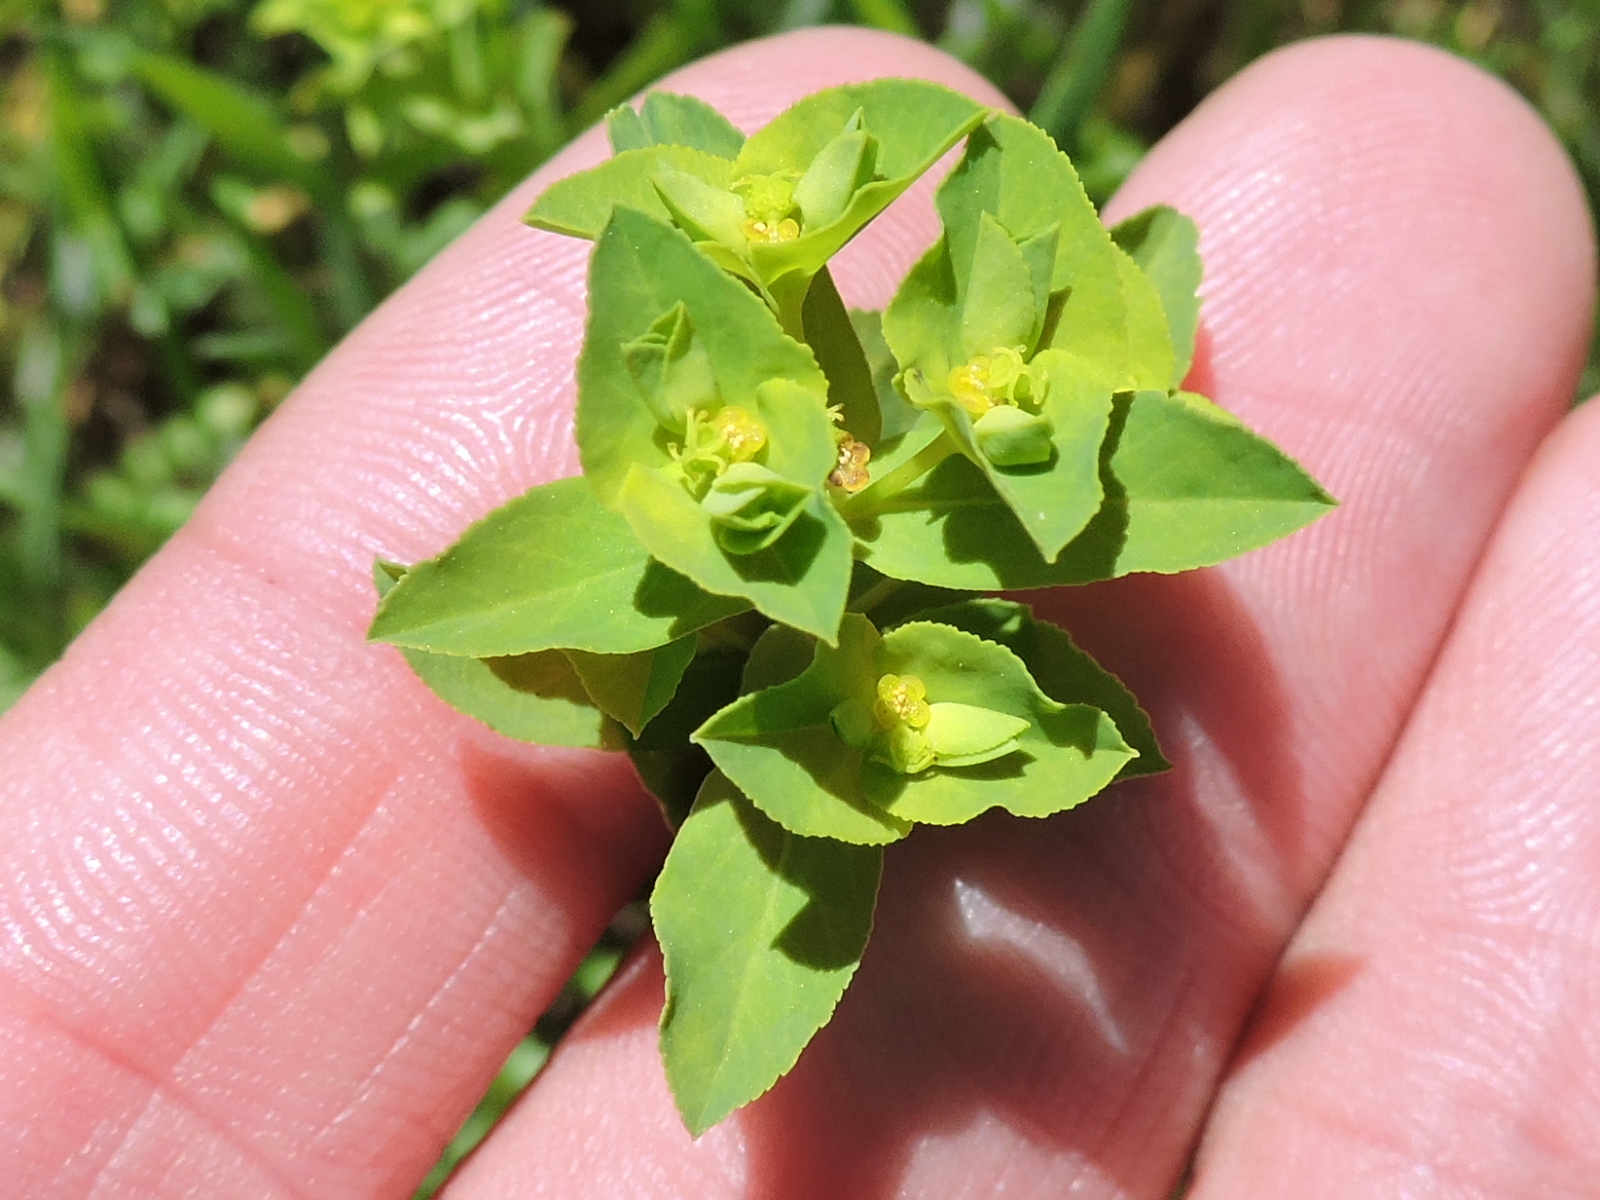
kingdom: Plantae
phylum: Tracheophyta
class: Magnoliopsida
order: Malpighiales
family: Euphorbiaceae
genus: Euphorbia
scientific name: Euphorbia spathulata
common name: Blunt spurge
